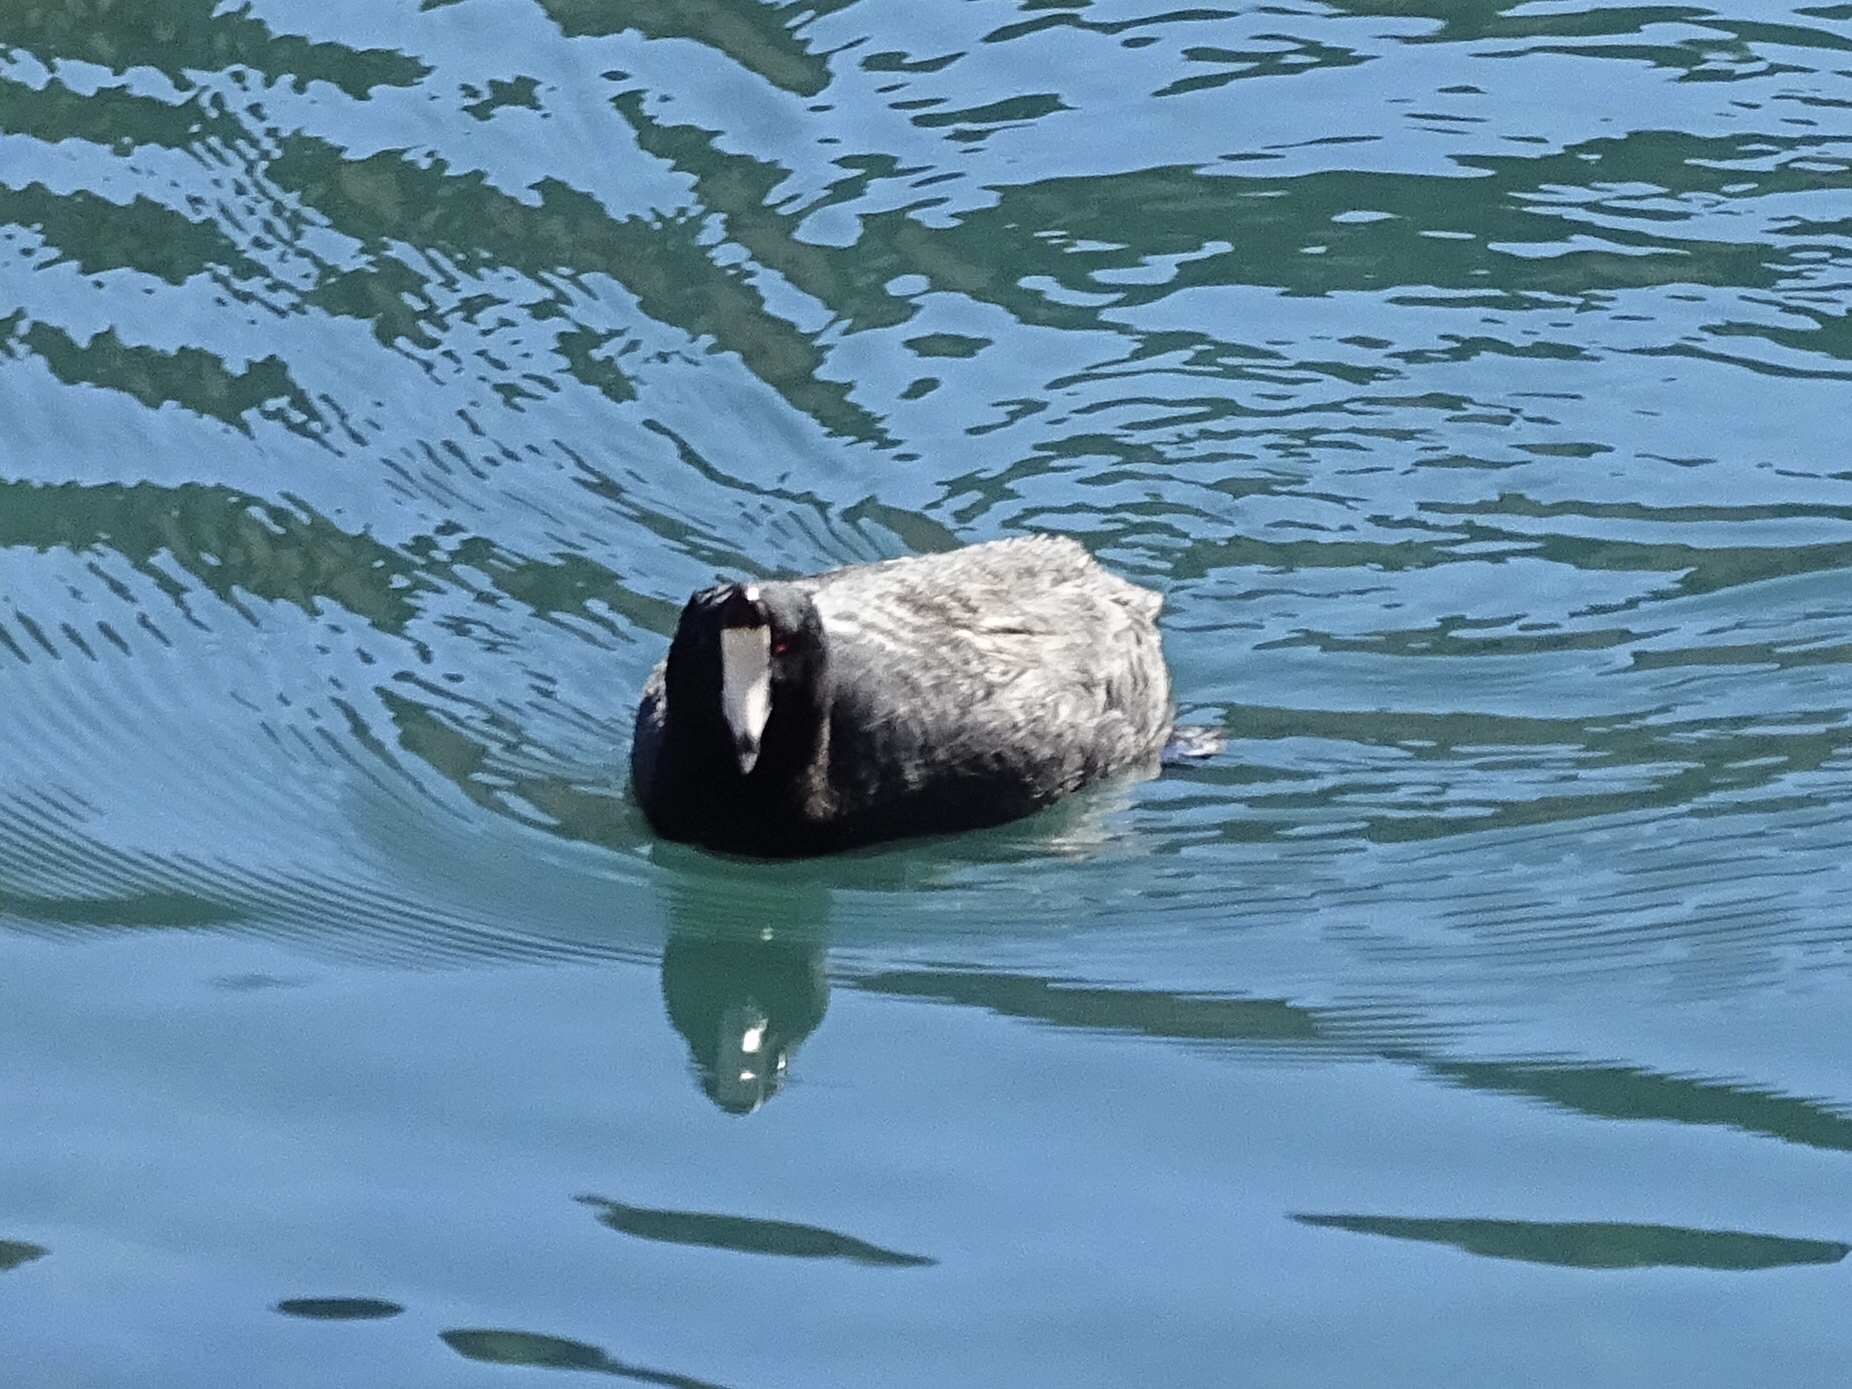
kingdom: Animalia
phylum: Chordata
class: Aves
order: Gruiformes
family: Rallidae
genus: Fulica
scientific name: Fulica americana
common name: American coot
